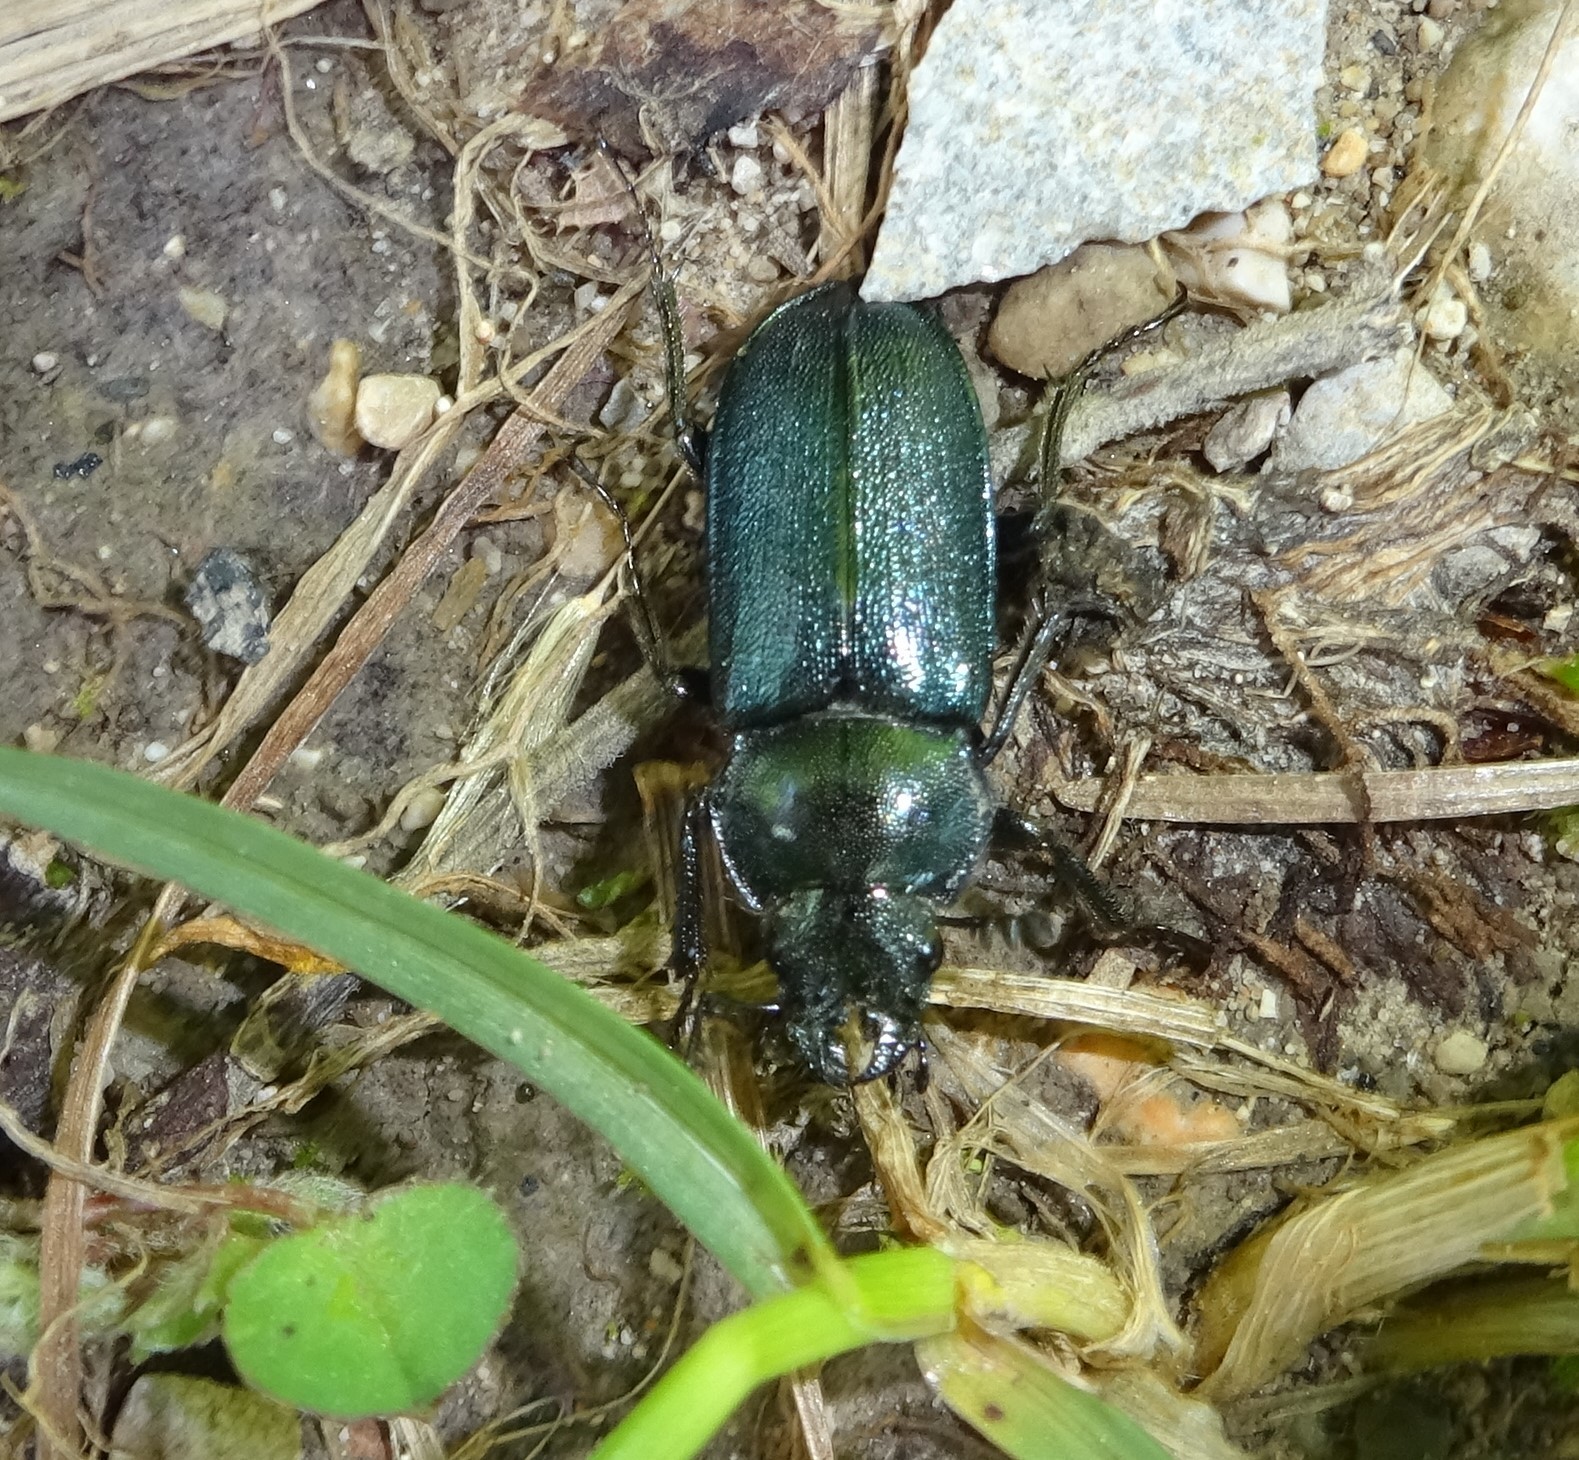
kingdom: Animalia
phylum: Arthropoda
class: Insecta
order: Coleoptera
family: Lucanidae
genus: Platycerus
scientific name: Platycerus caraboides
